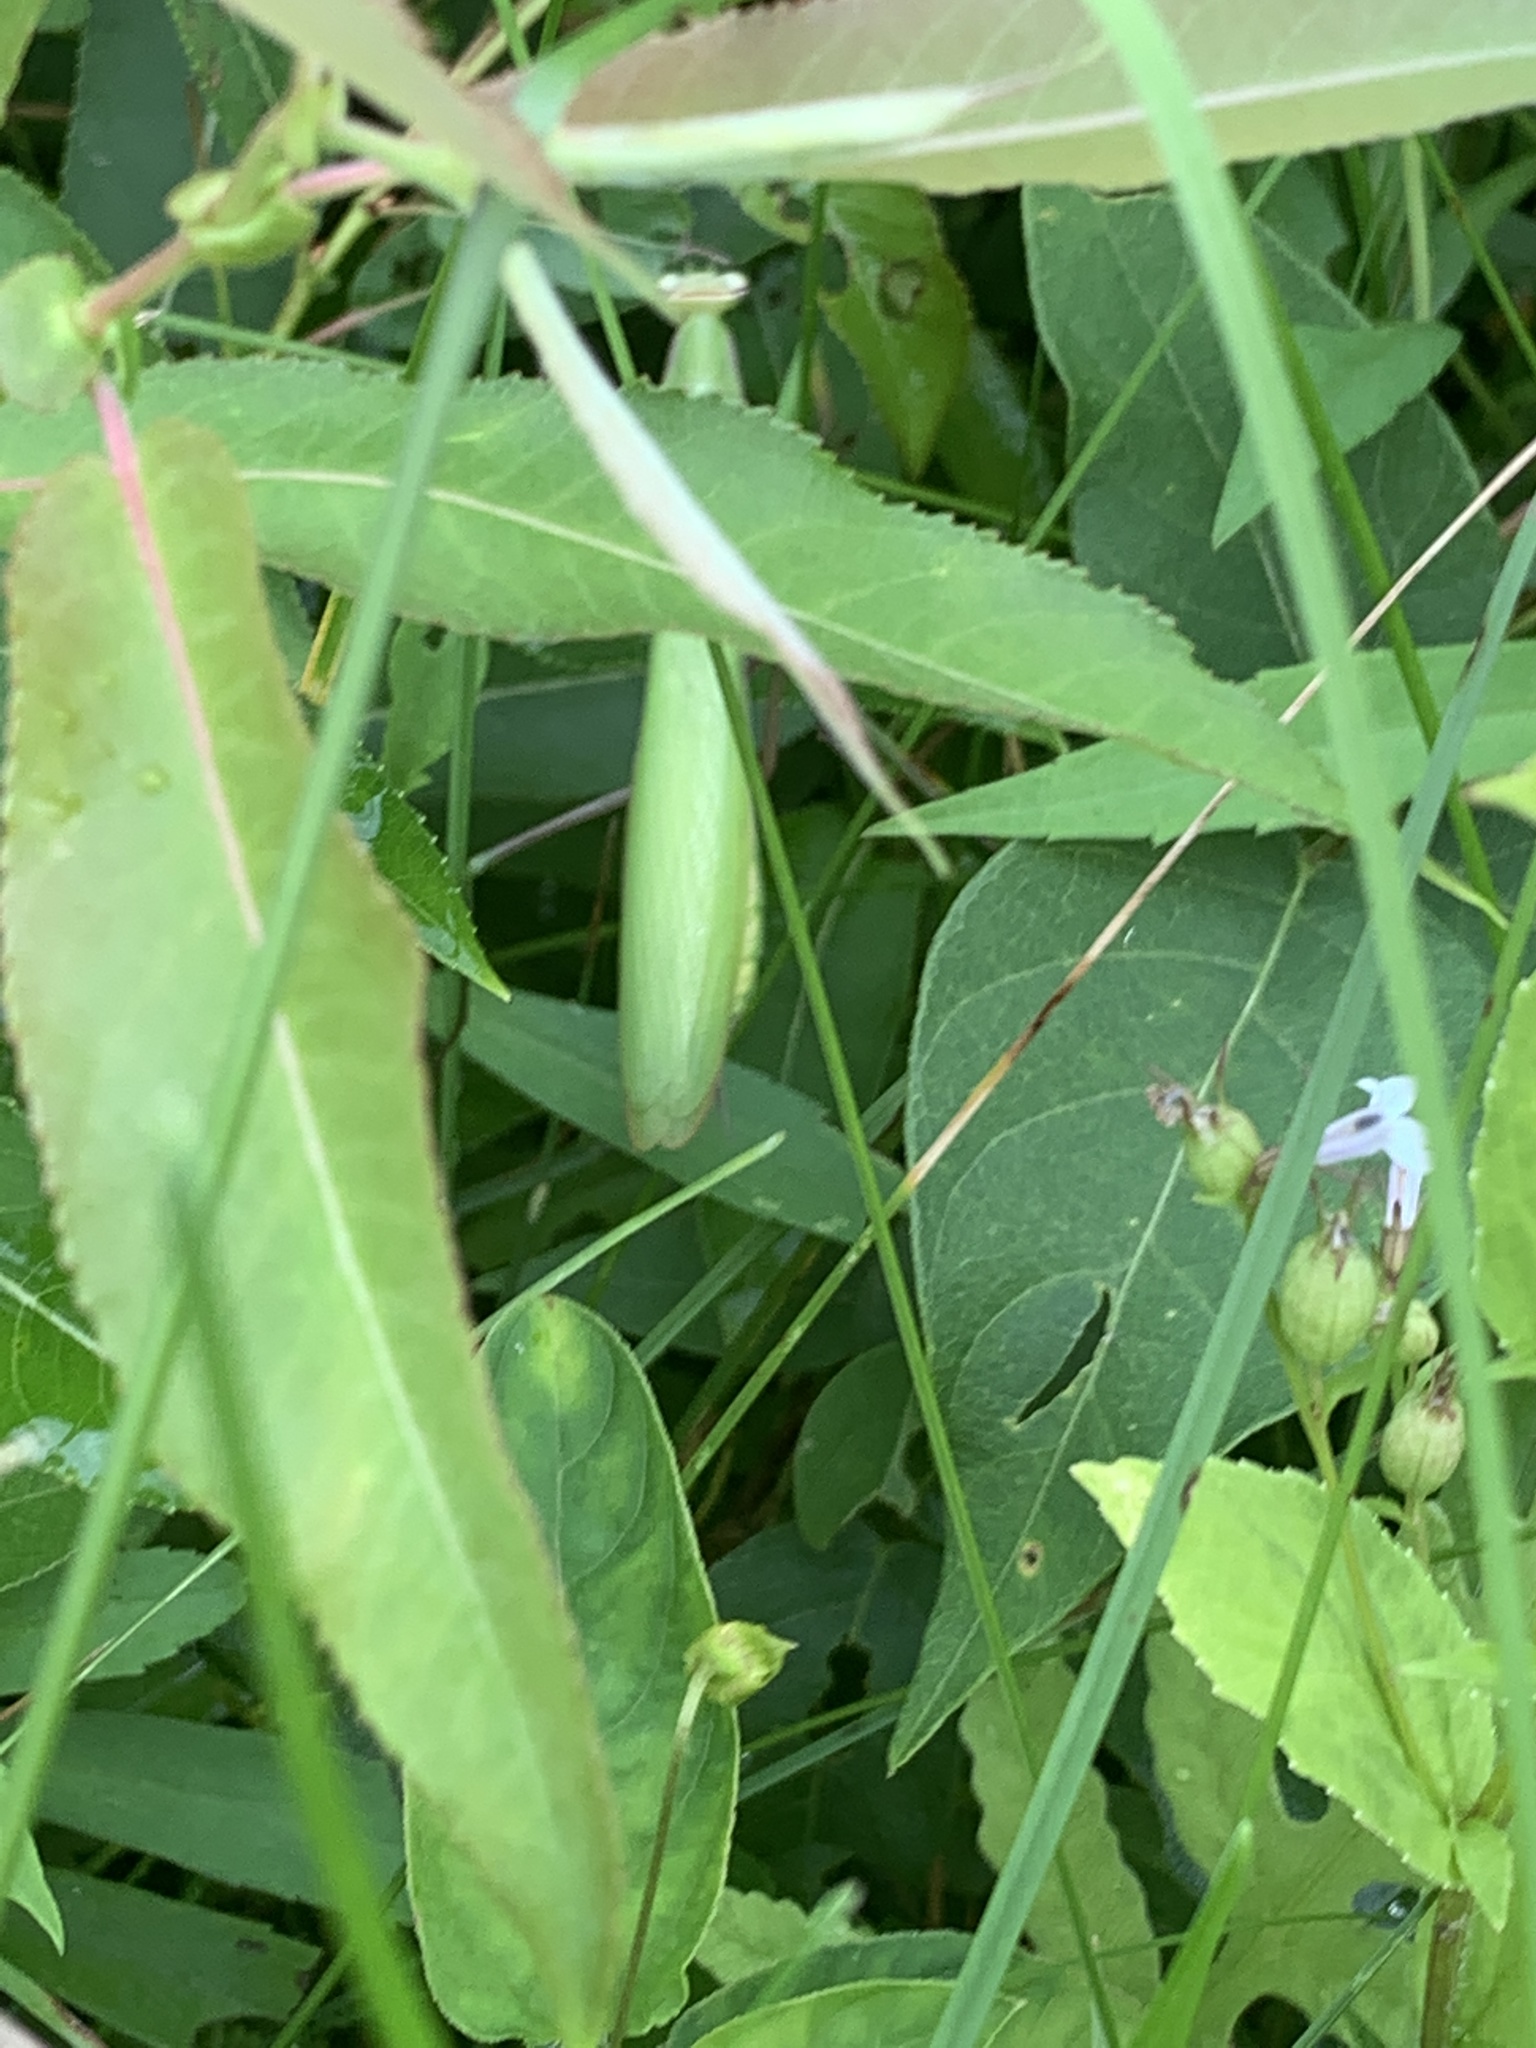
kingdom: Animalia
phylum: Arthropoda
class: Insecta
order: Mantodea
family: Mantidae
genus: Mantis
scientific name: Mantis religiosa
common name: Praying mantis
